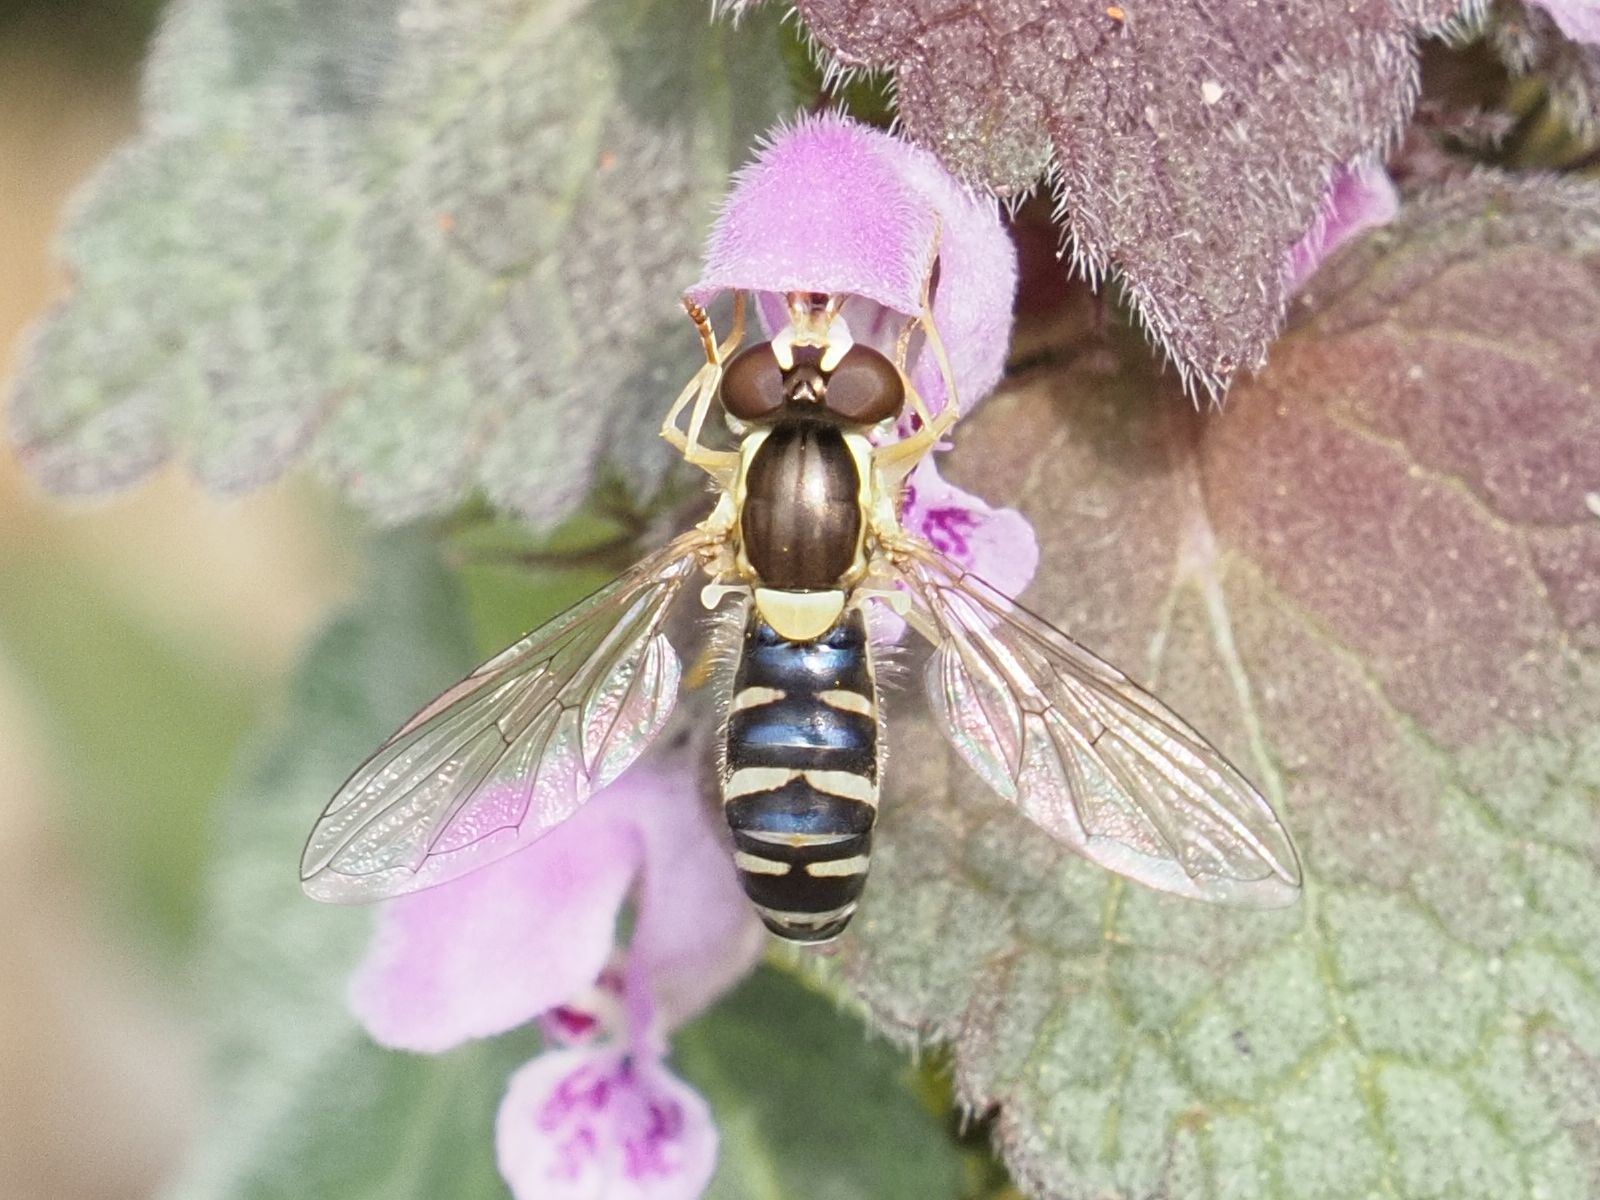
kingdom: Animalia
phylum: Arthropoda
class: Insecta
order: Diptera
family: Syrphidae
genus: Sphaerophoria
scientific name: Sphaerophoria
